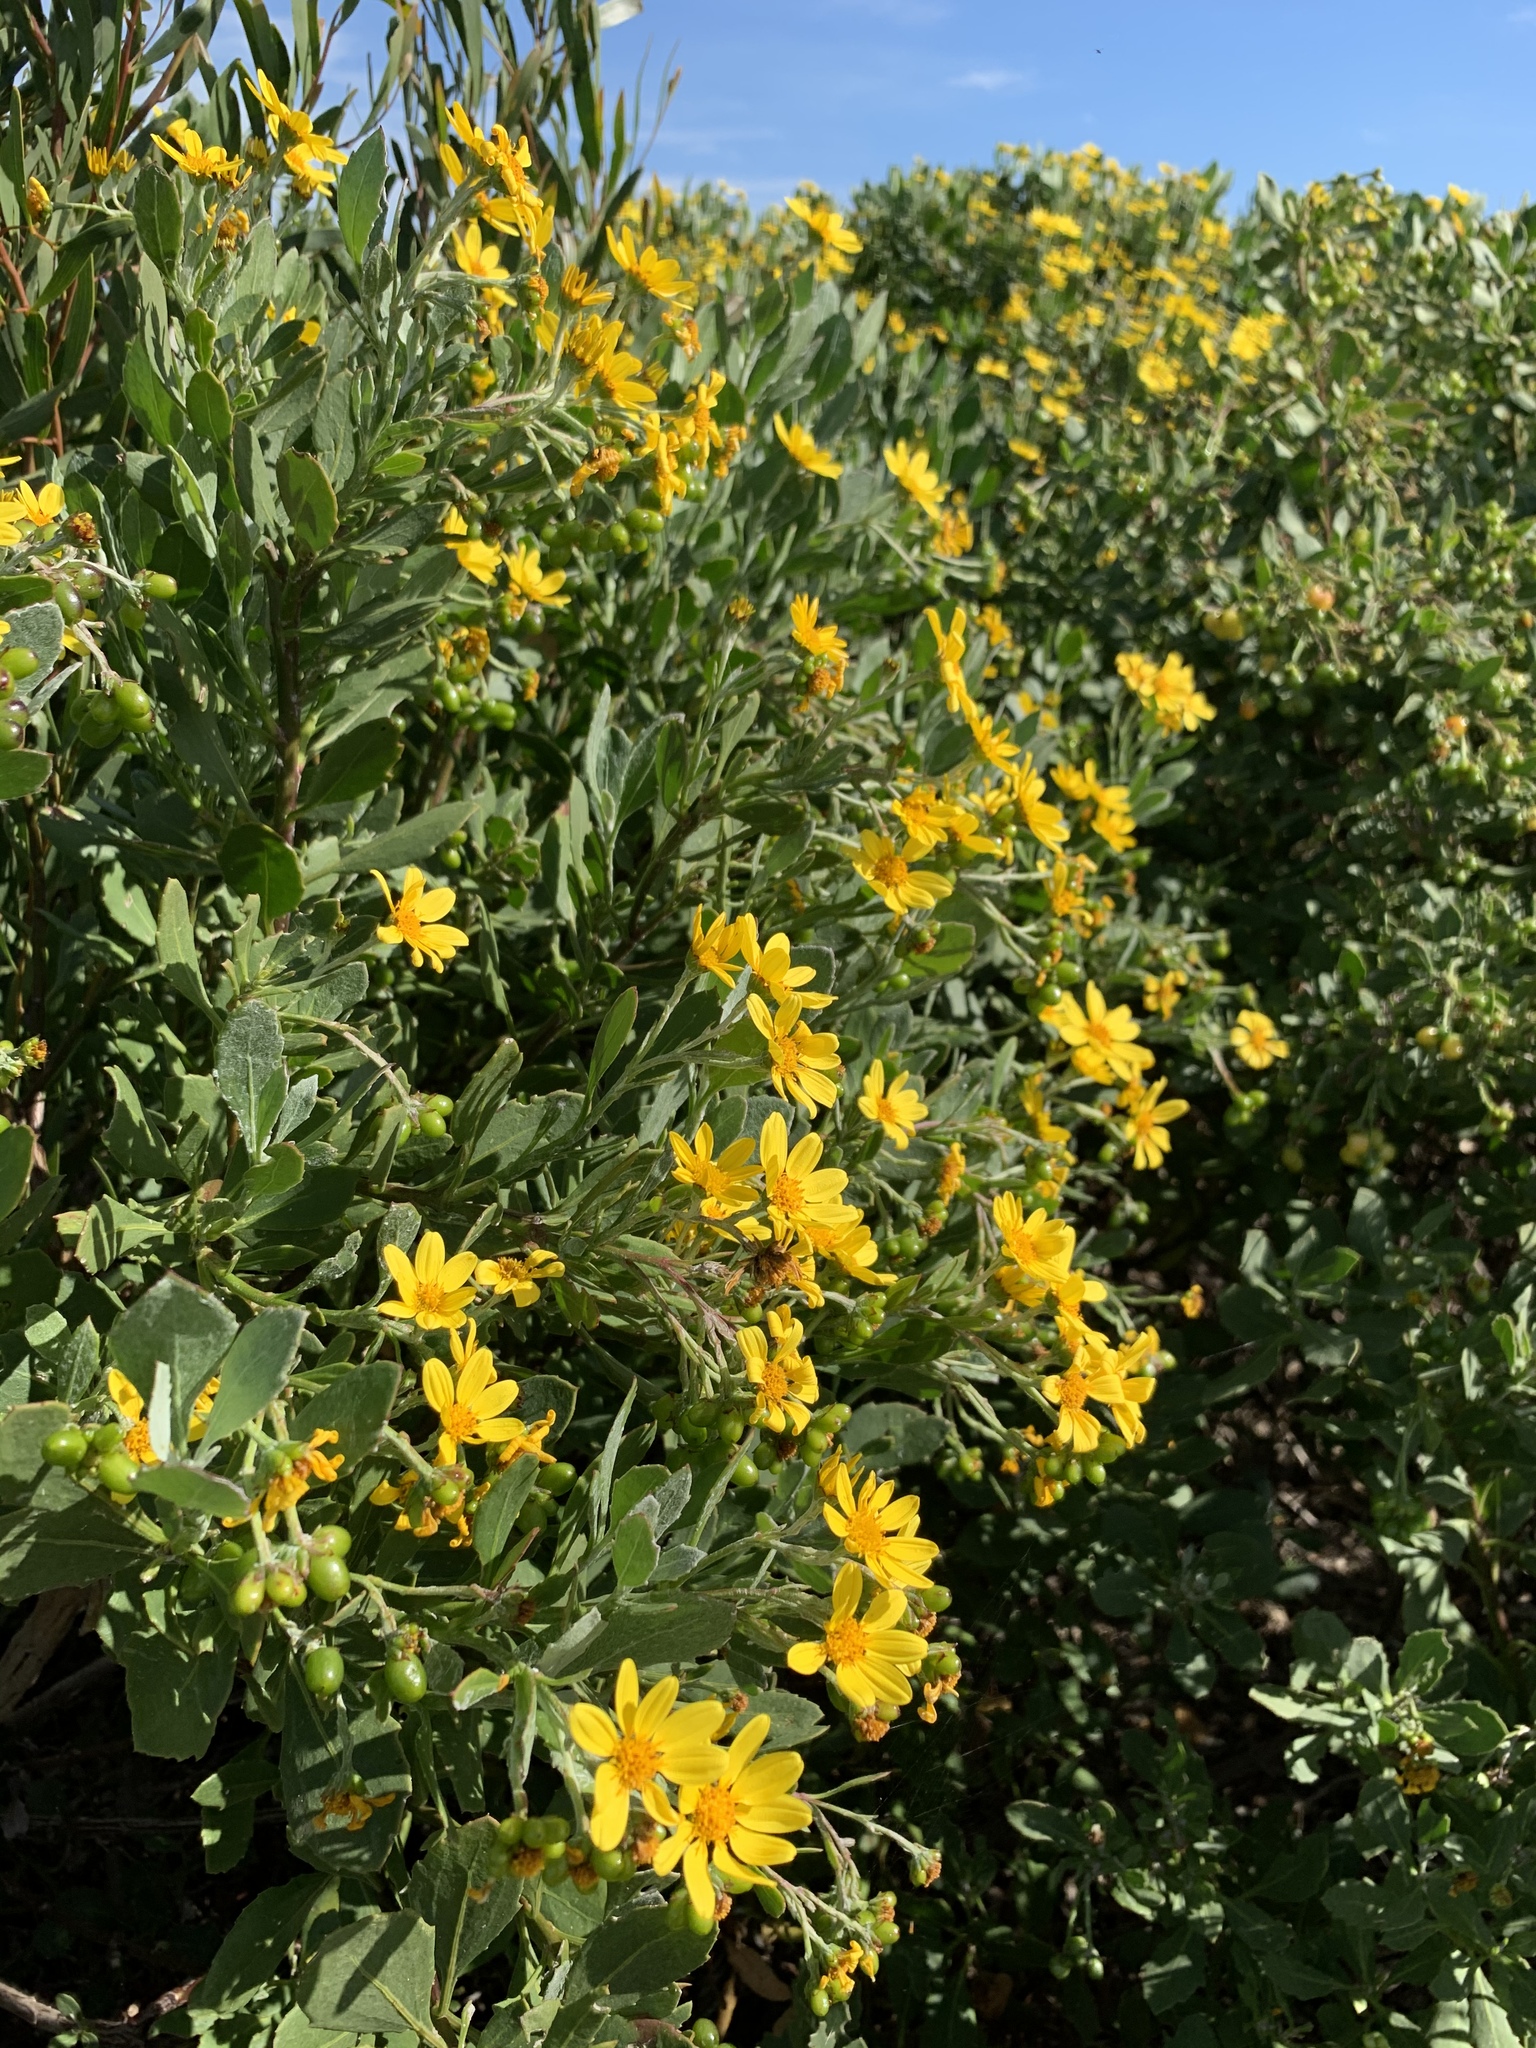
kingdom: Plantae
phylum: Tracheophyta
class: Magnoliopsida
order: Asterales
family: Asteraceae
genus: Osteospermum
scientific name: Osteospermum moniliferum
